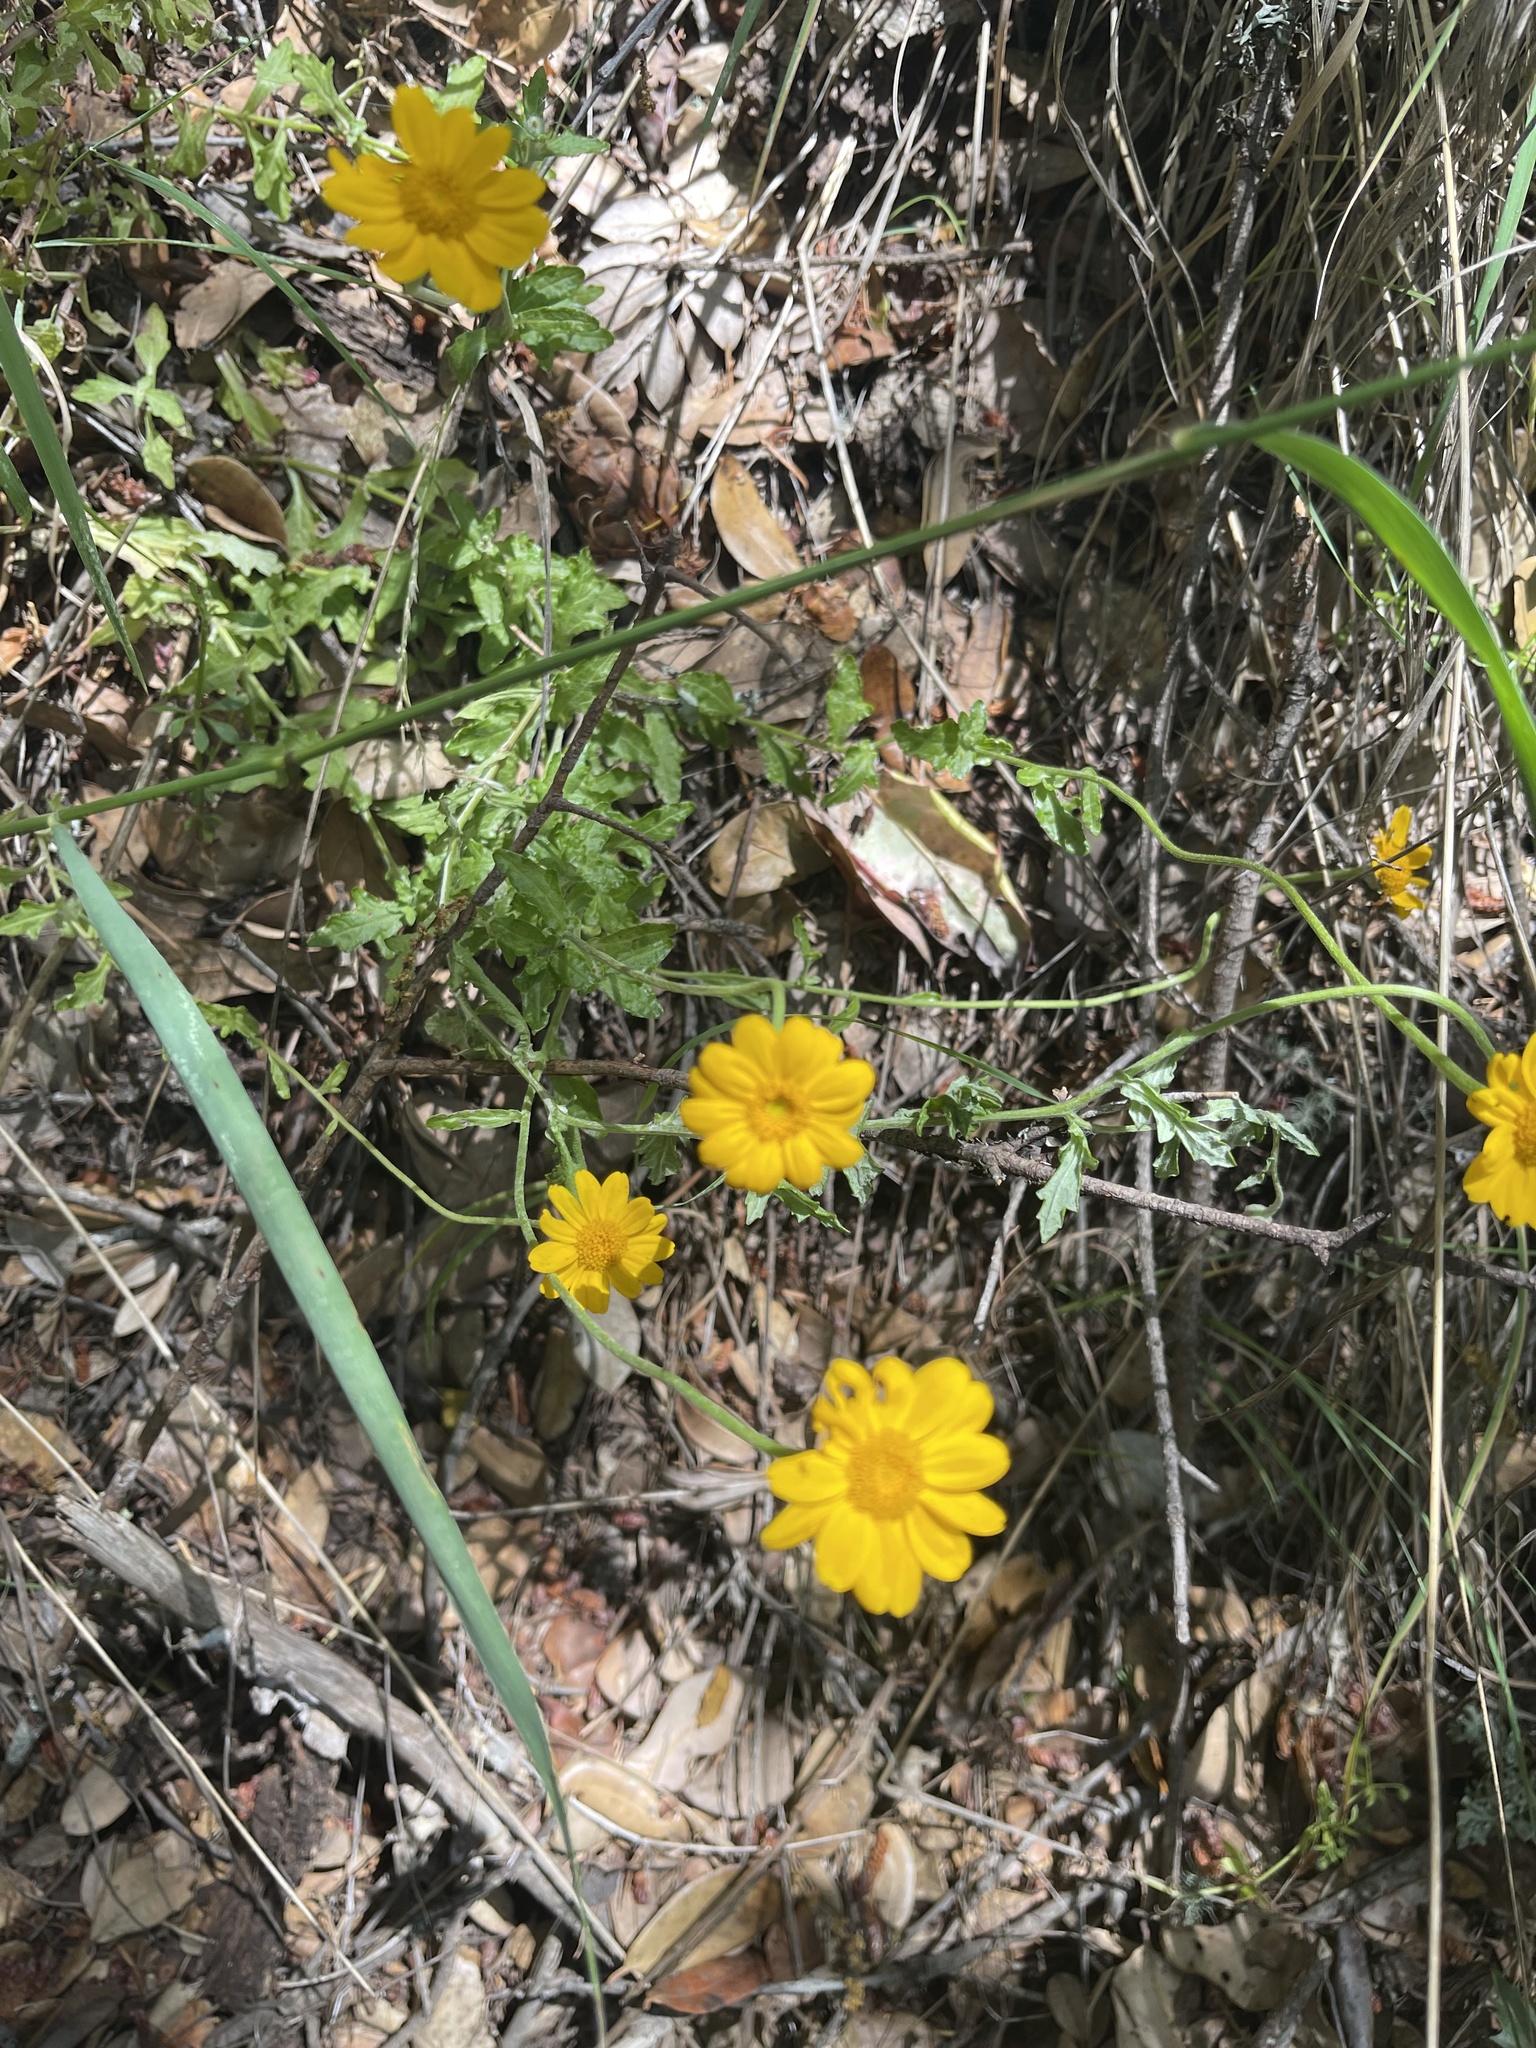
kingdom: Plantae
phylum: Tracheophyta
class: Magnoliopsida
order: Asterales
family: Asteraceae
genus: Eriophyllum
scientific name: Eriophyllum lanatum
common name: Common woolly-sunflower
